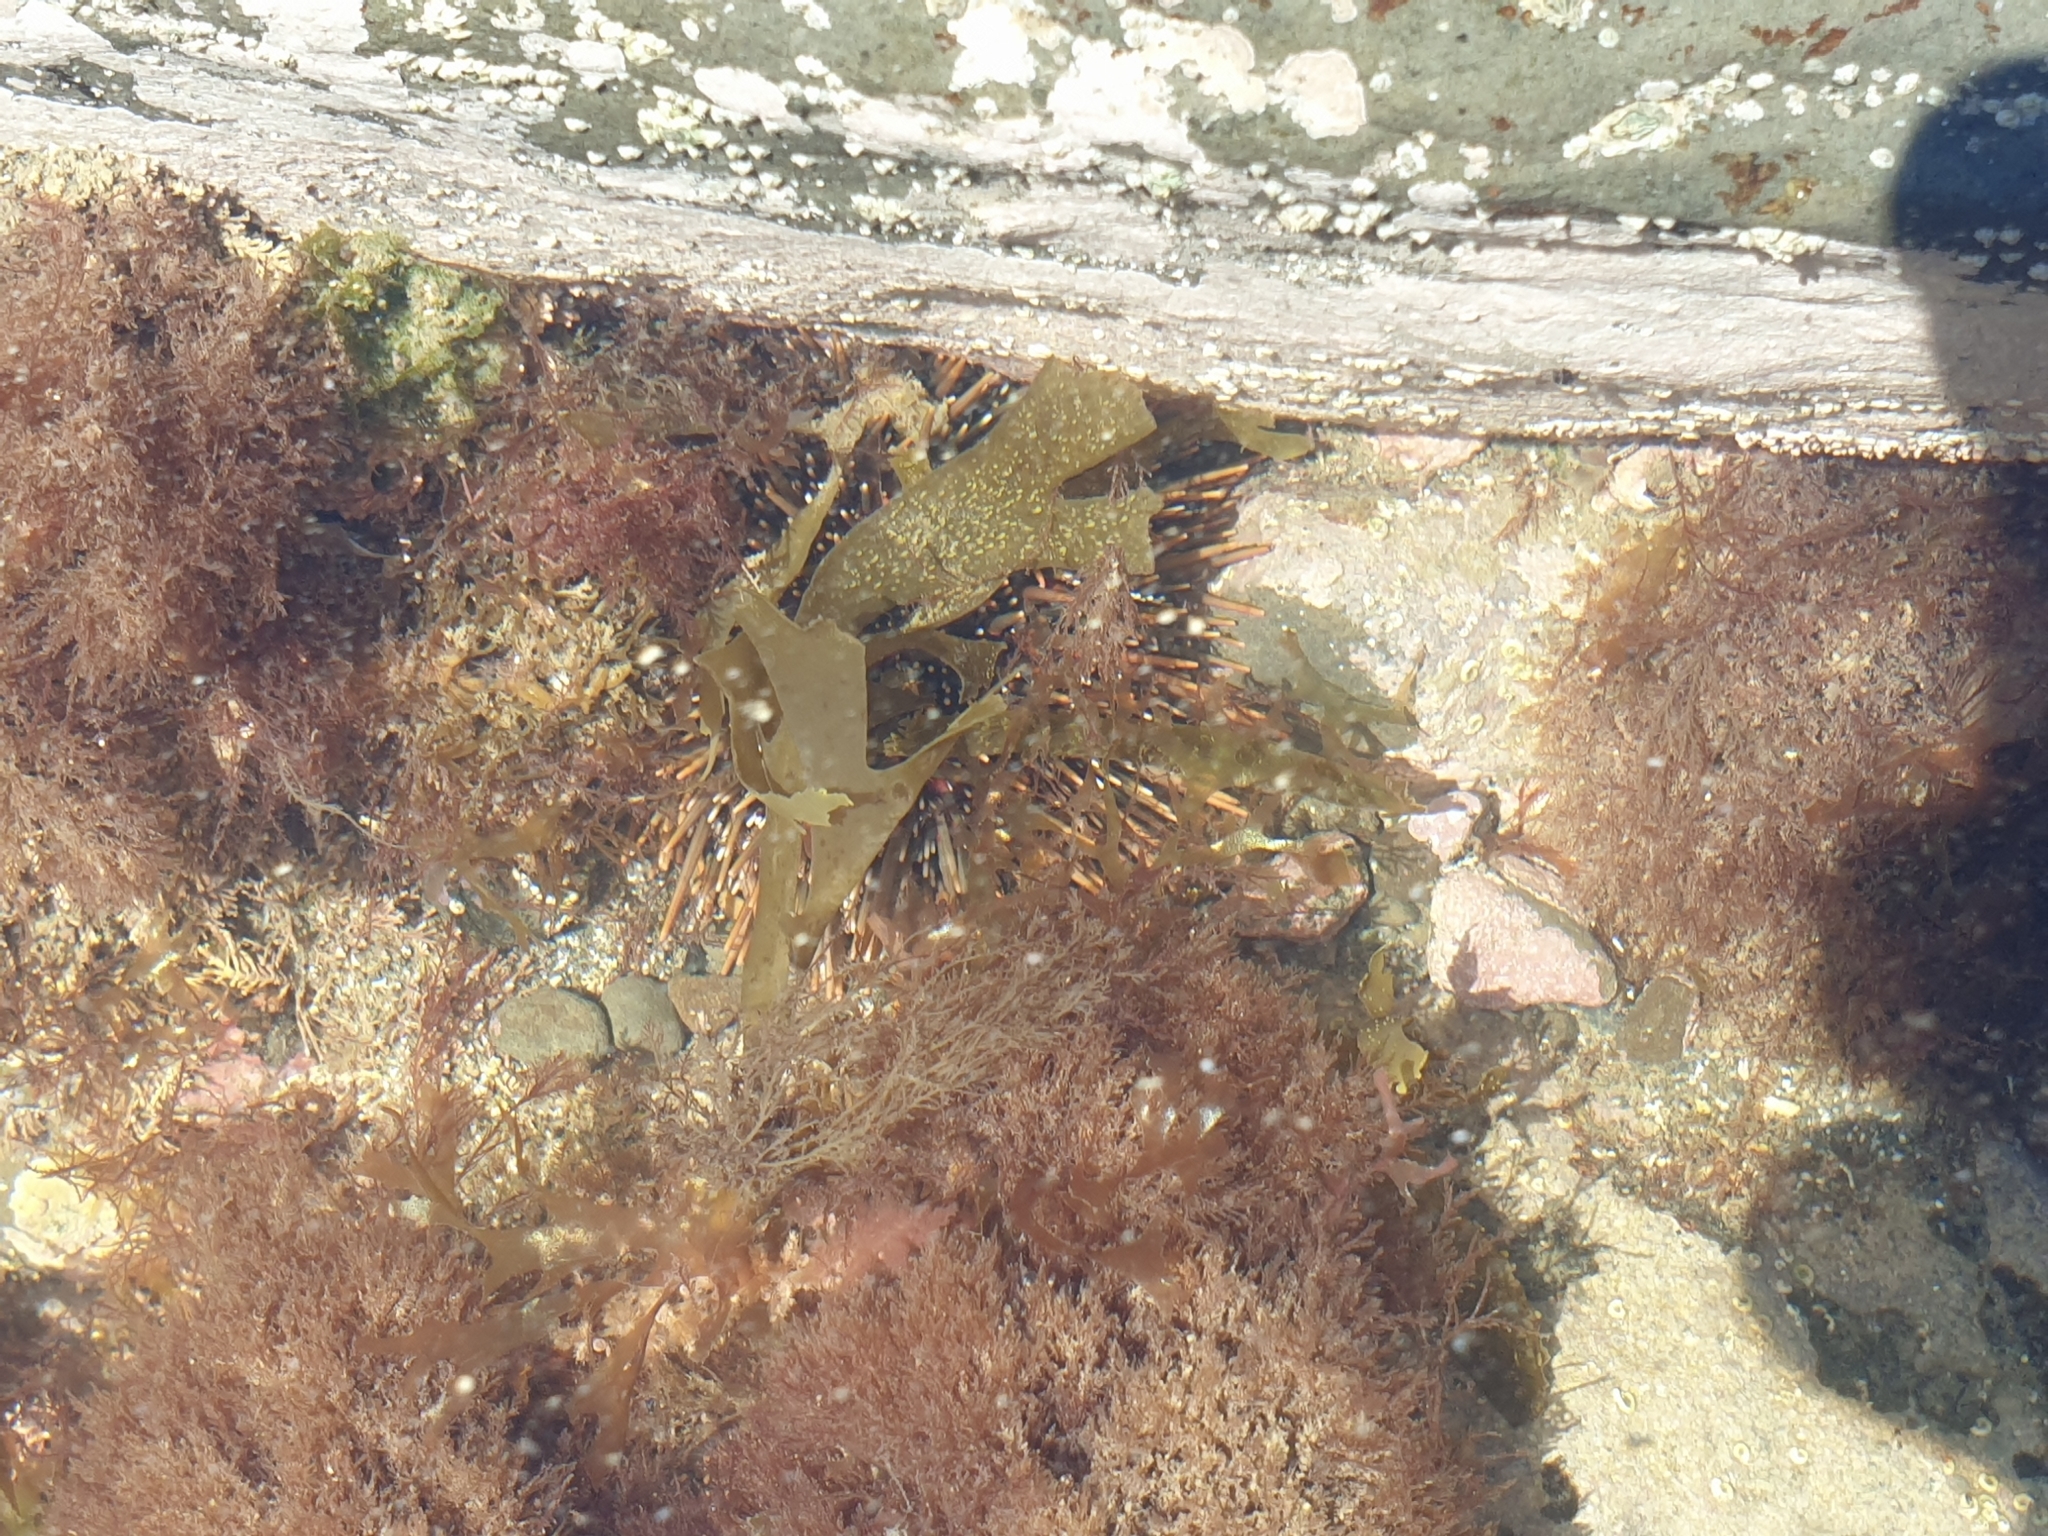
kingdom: Animalia
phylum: Echinodermata
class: Echinoidea
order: Camarodonta
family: Echinometridae
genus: Evechinus
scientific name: Evechinus chloroticus
